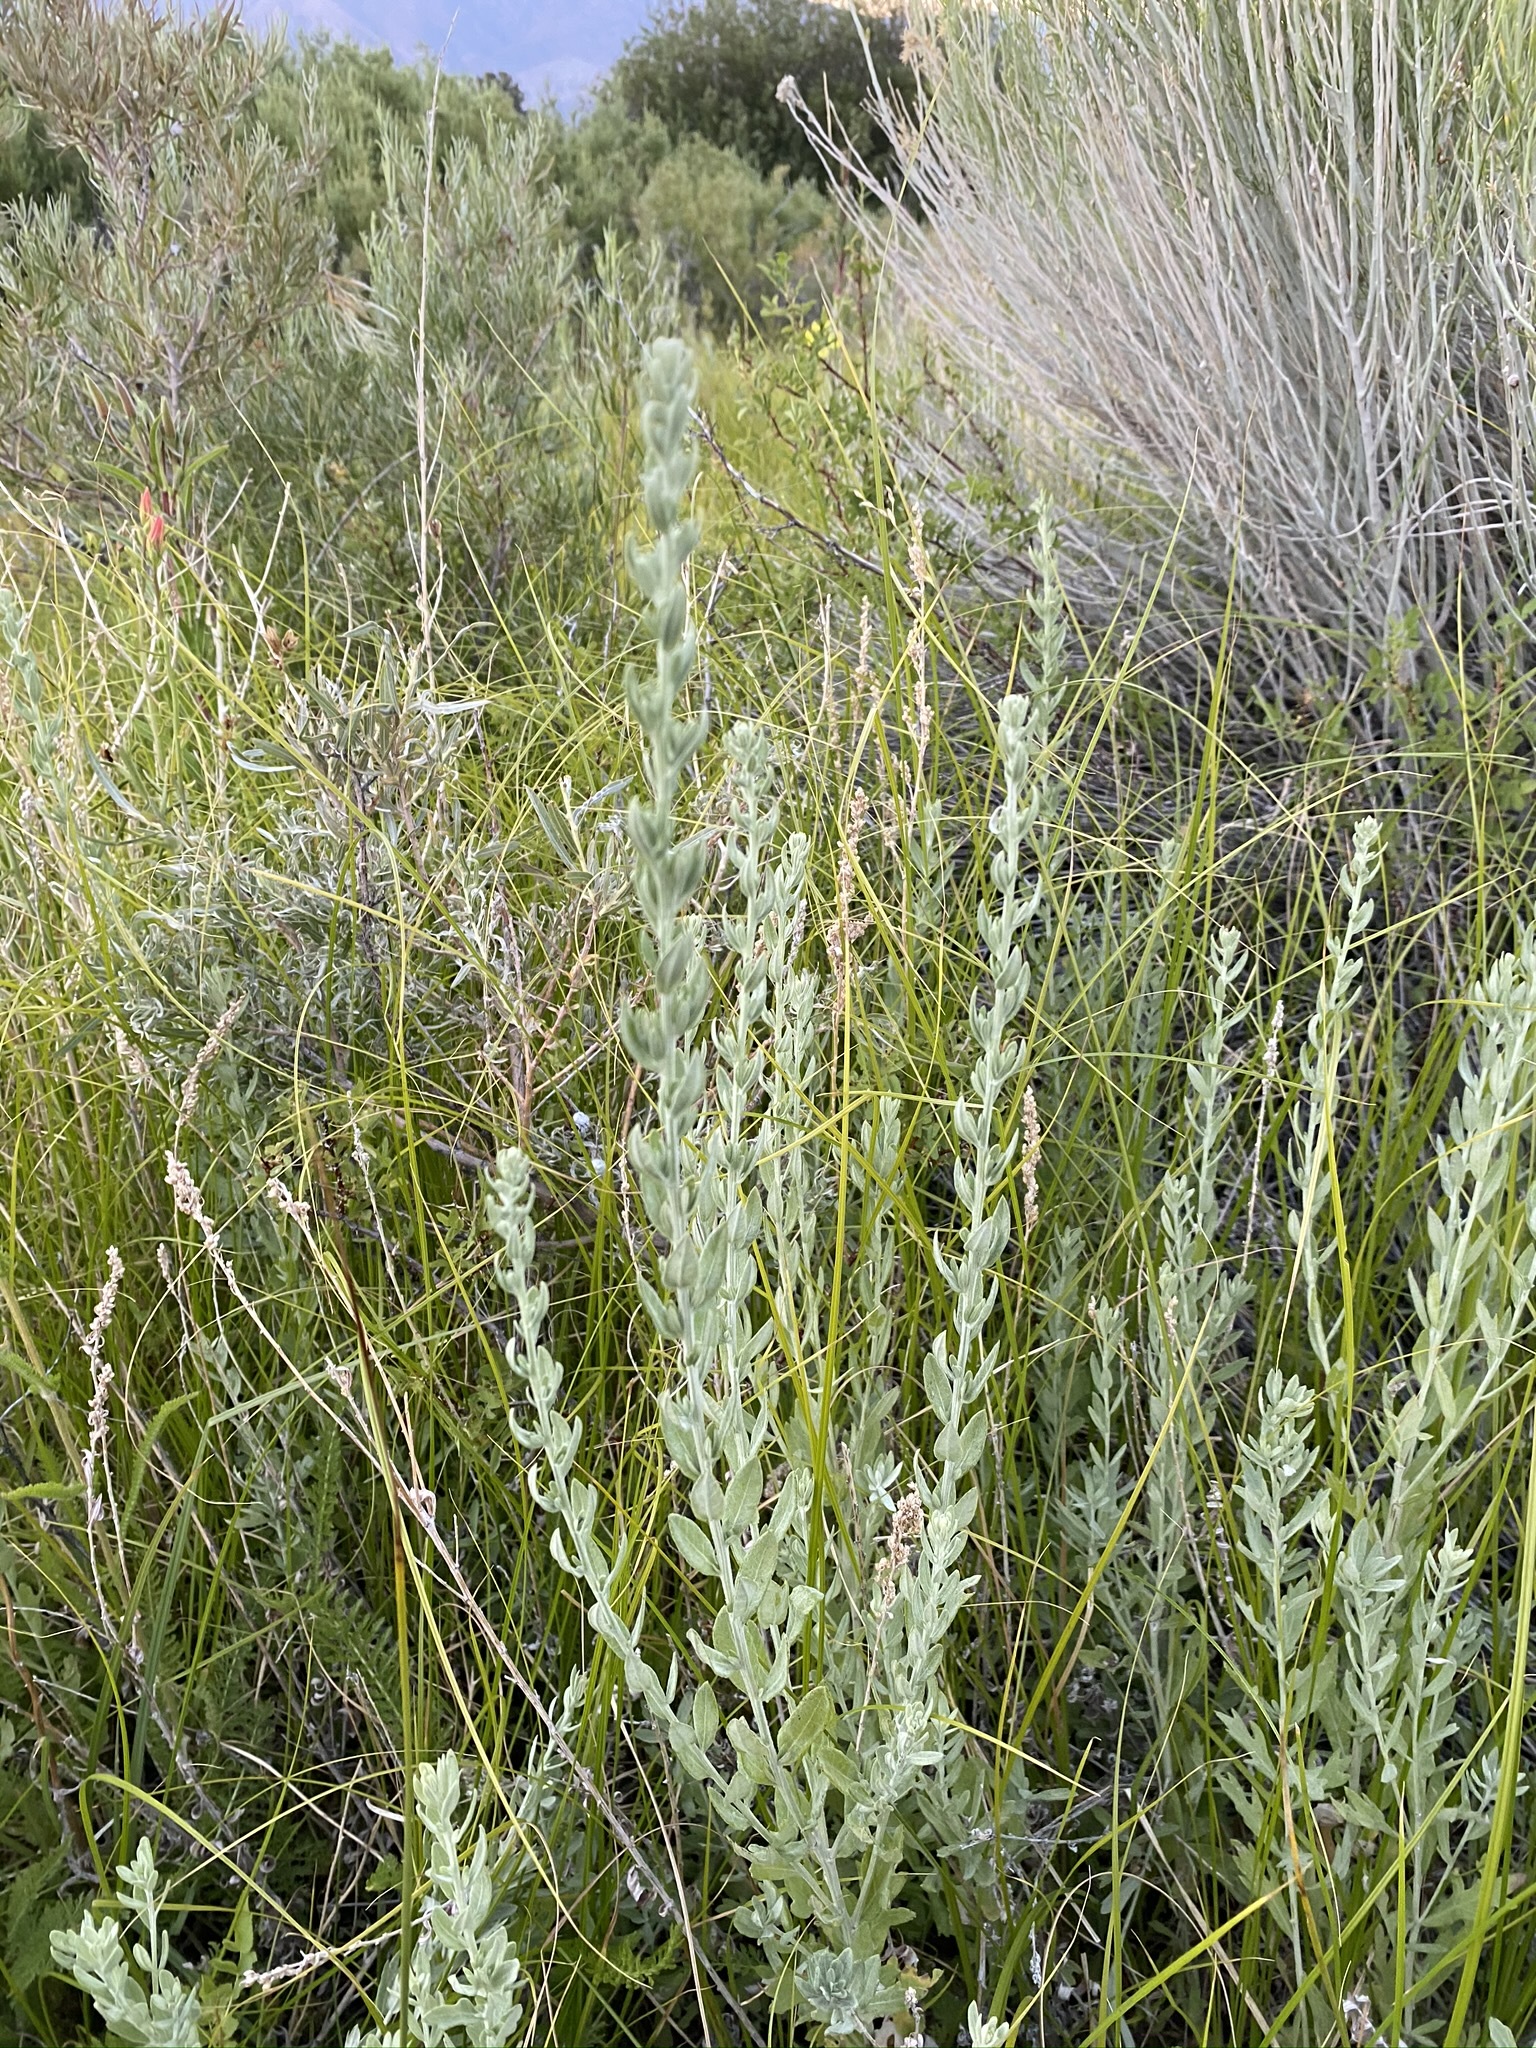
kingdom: Plantae
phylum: Tracheophyta
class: Magnoliopsida
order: Asterales
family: Asteraceae
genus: Artemisia
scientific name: Artemisia ludoviciana
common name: Western mugwort
